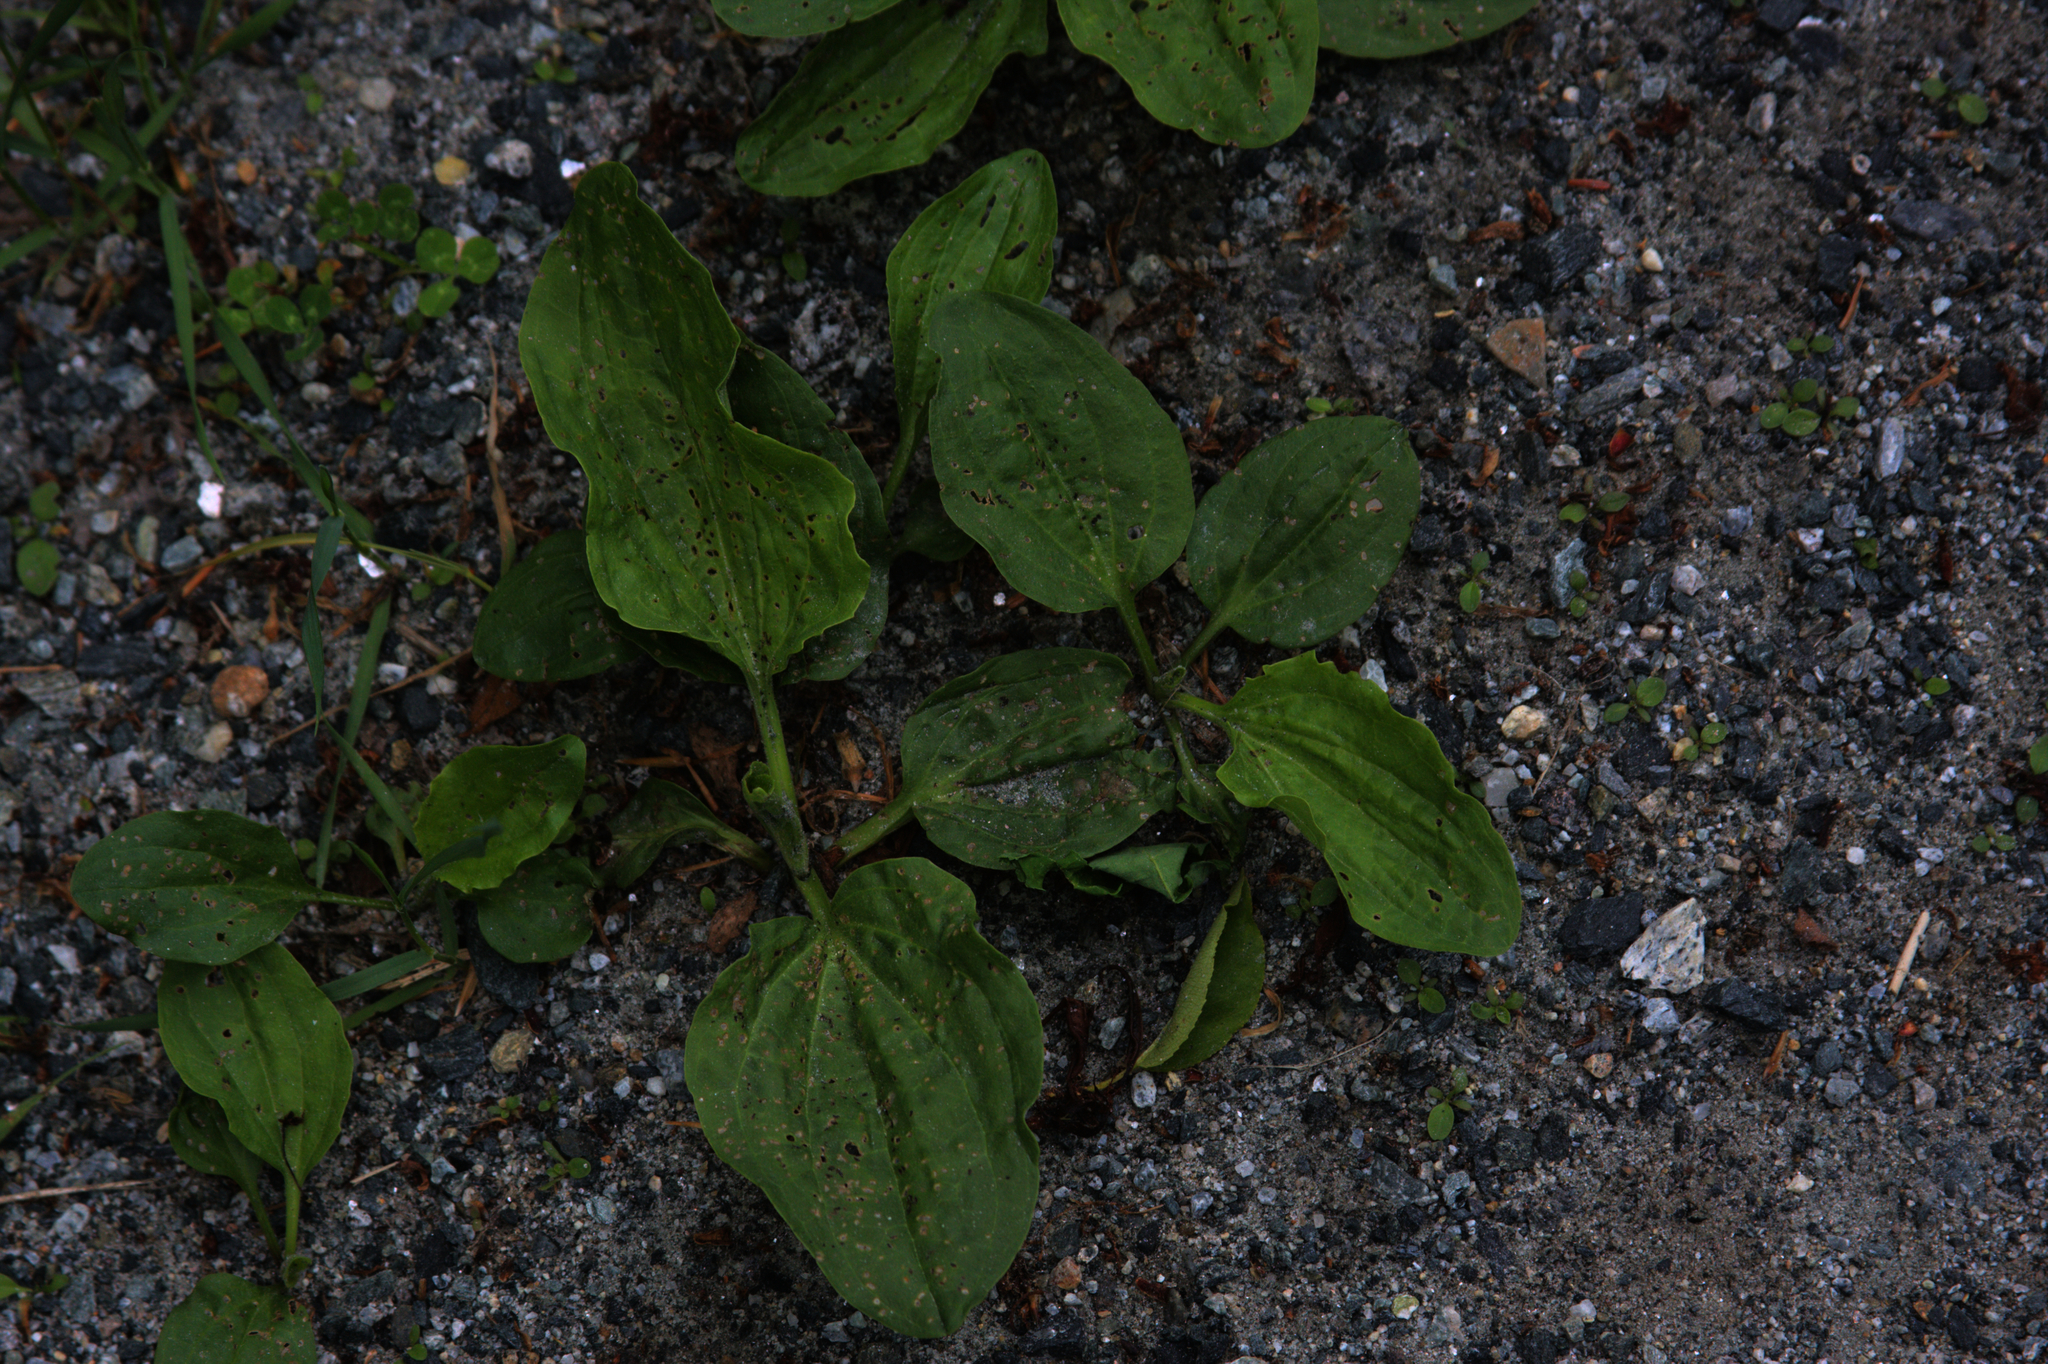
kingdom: Plantae
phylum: Tracheophyta
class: Magnoliopsida
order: Lamiales
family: Plantaginaceae
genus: Plantago
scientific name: Plantago major
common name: Common plantain
